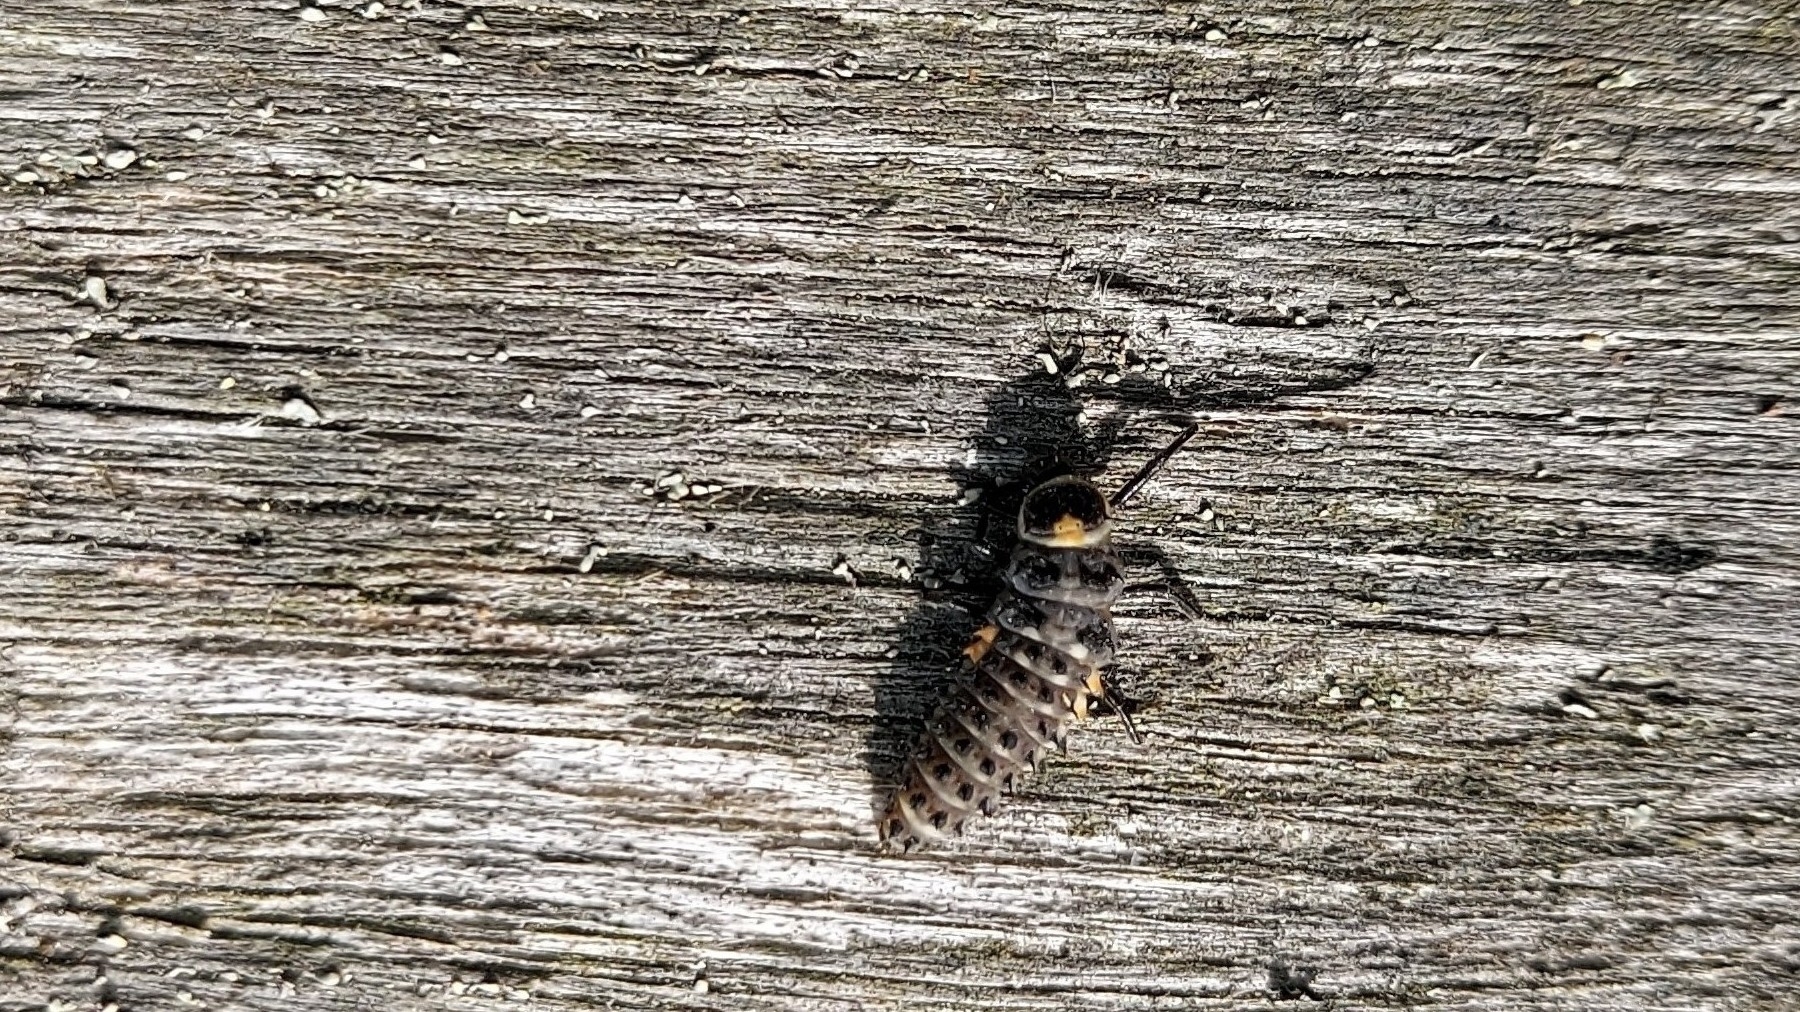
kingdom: Animalia
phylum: Arthropoda
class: Insecta
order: Coleoptera
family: Coccinellidae
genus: Anatis
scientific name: Anatis ocellata
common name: Eyed ladybird
